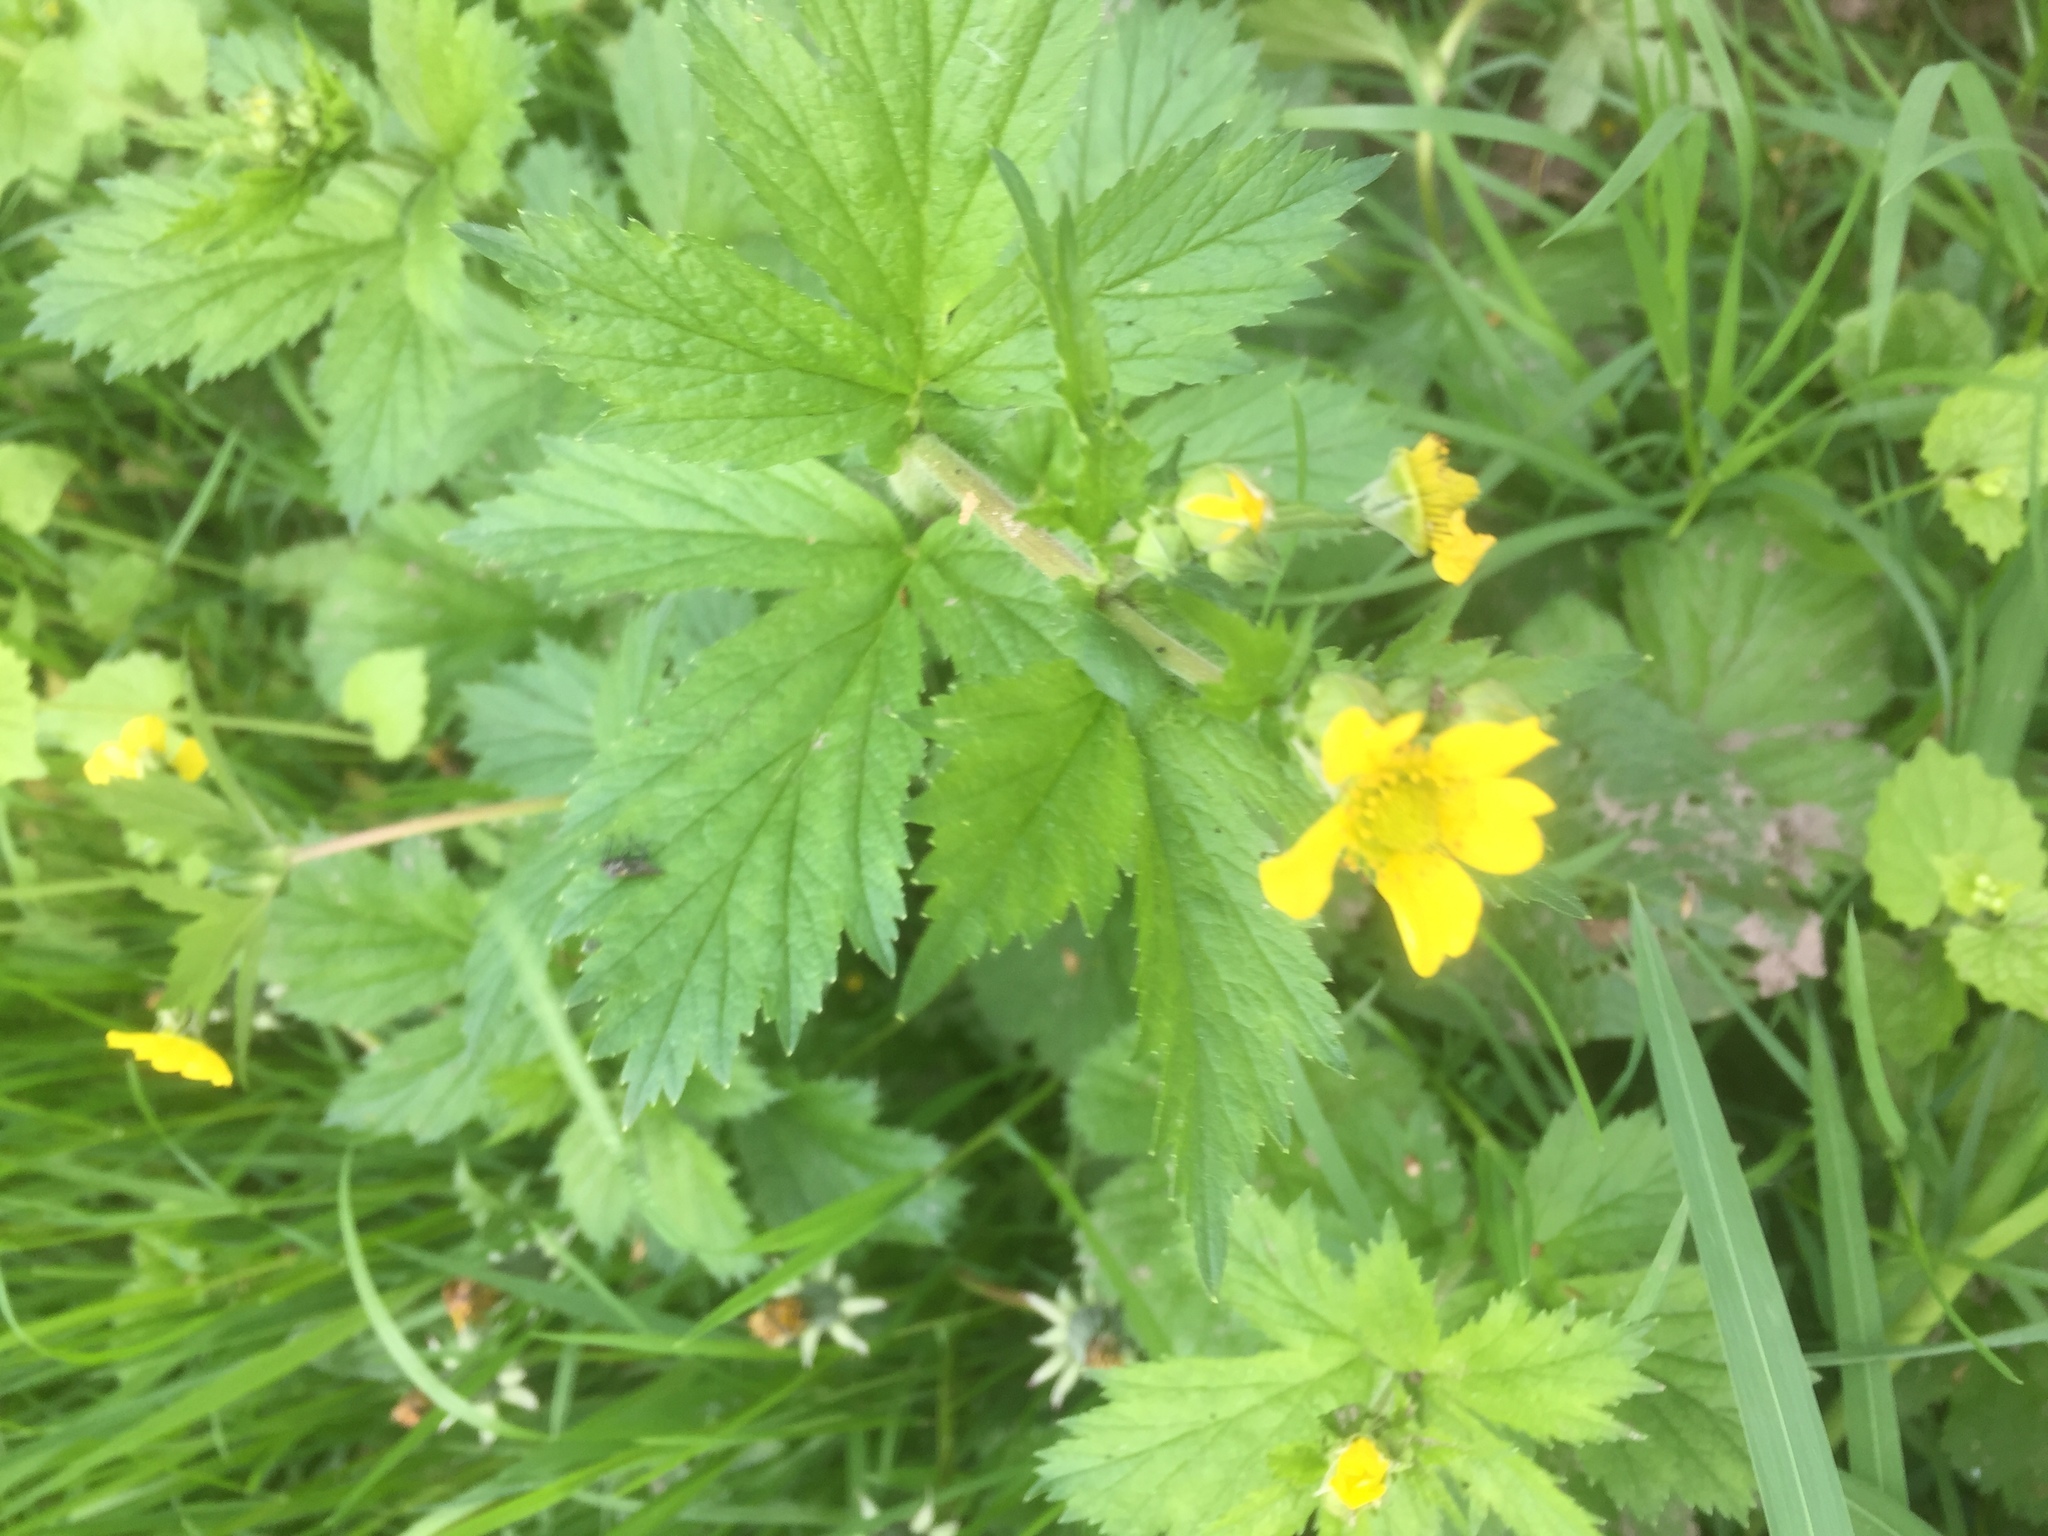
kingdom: Plantae
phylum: Tracheophyta
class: Magnoliopsida
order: Rosales
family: Rosaceae
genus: Geum
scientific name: Geum macrophyllum
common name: Large-leaved avens
